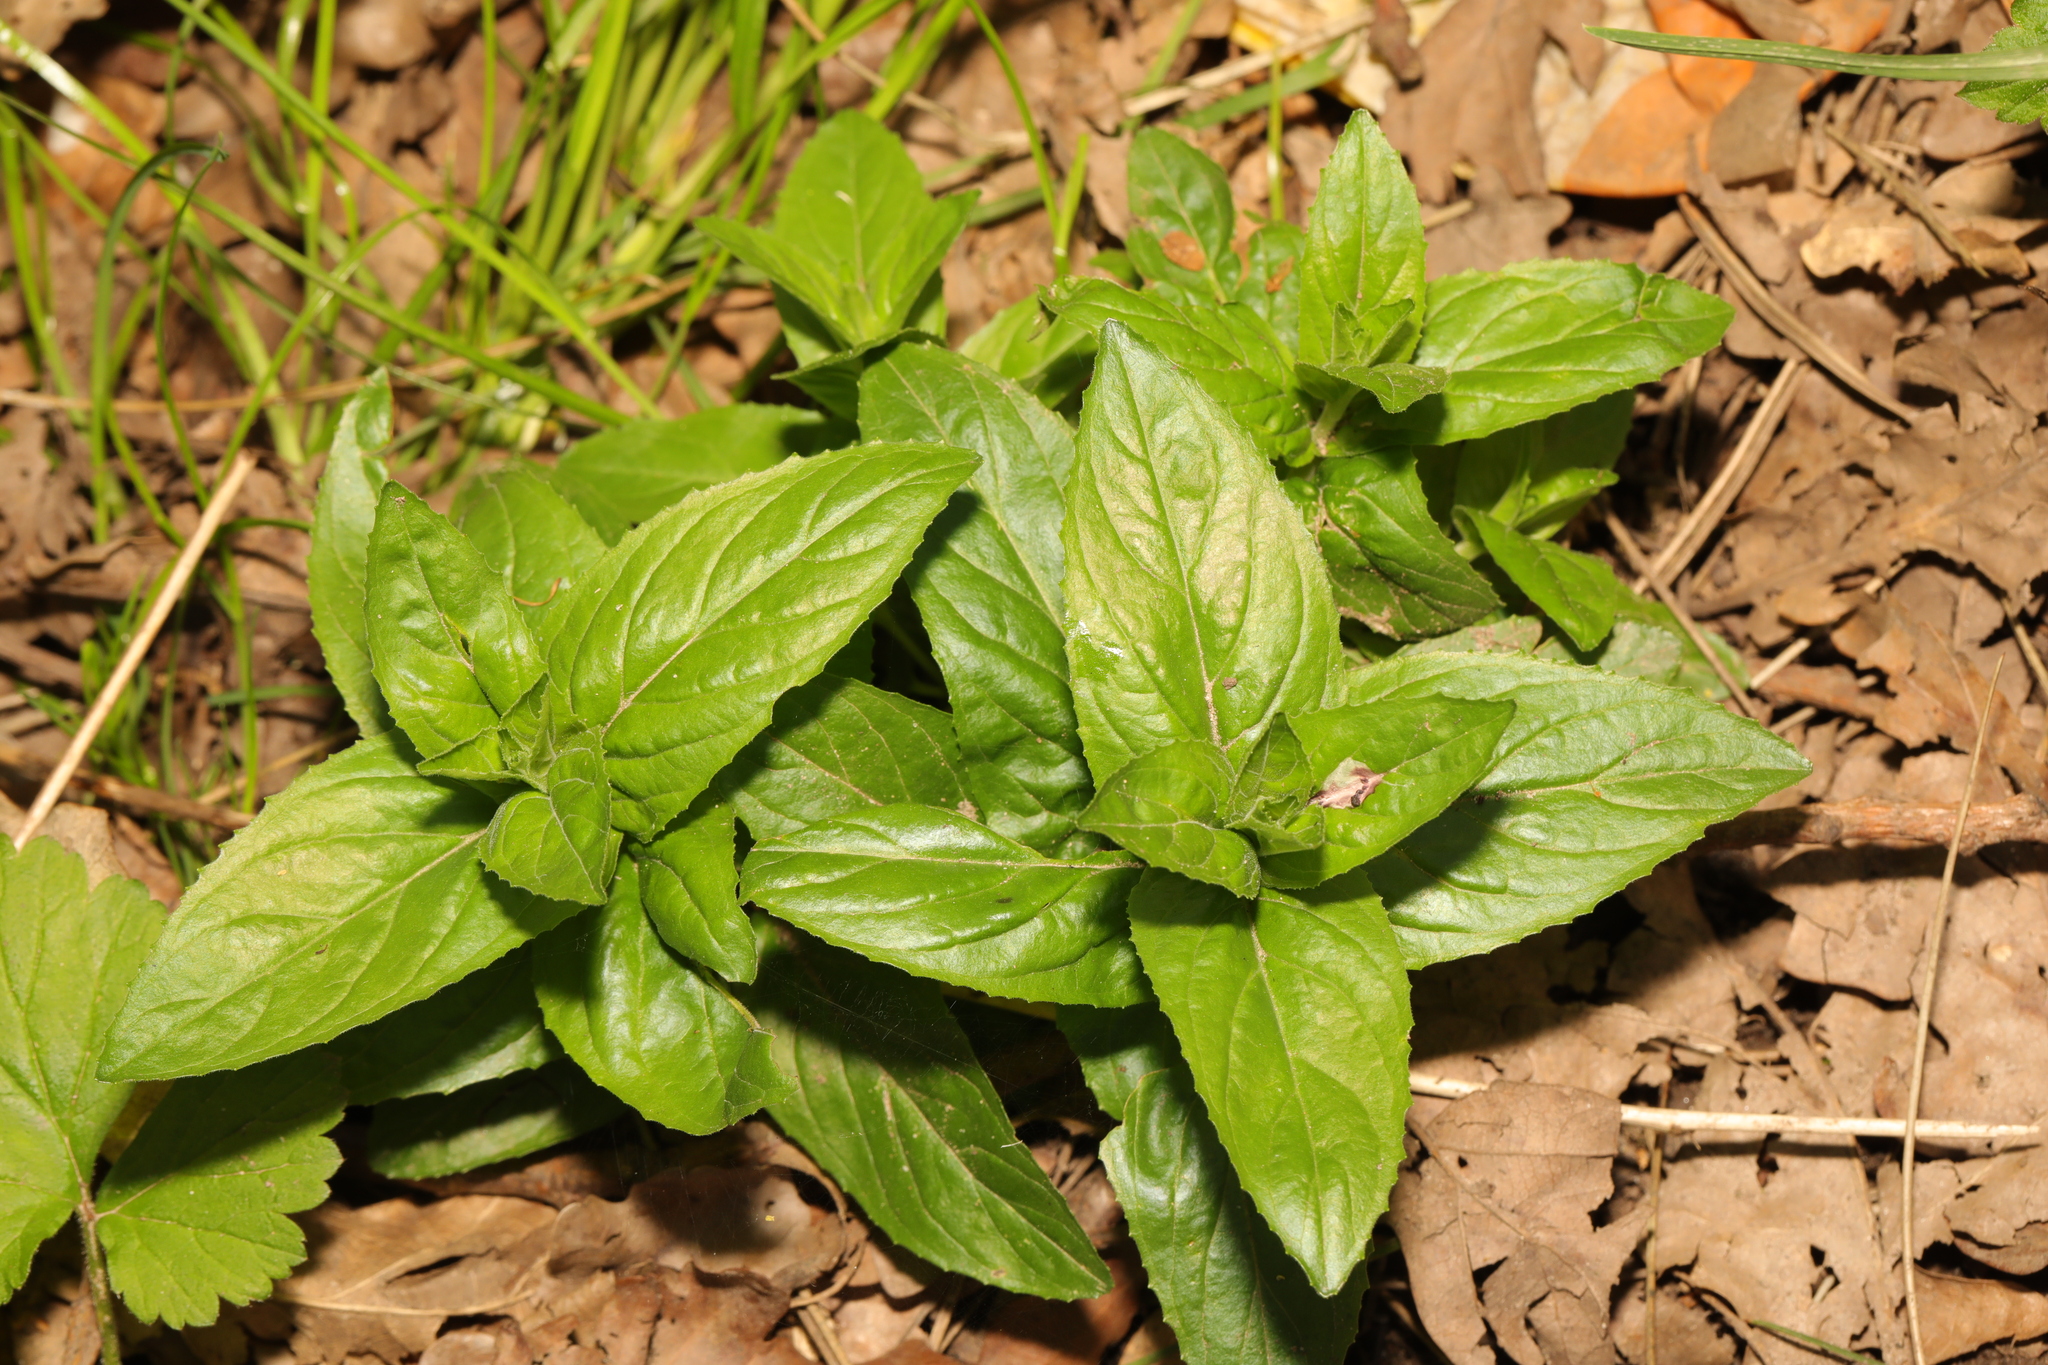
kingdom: Plantae
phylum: Tracheophyta
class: Magnoliopsida
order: Myrtales
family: Onagraceae
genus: Epilobium
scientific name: Epilobium montanum
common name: Broad-leaved willowherb
